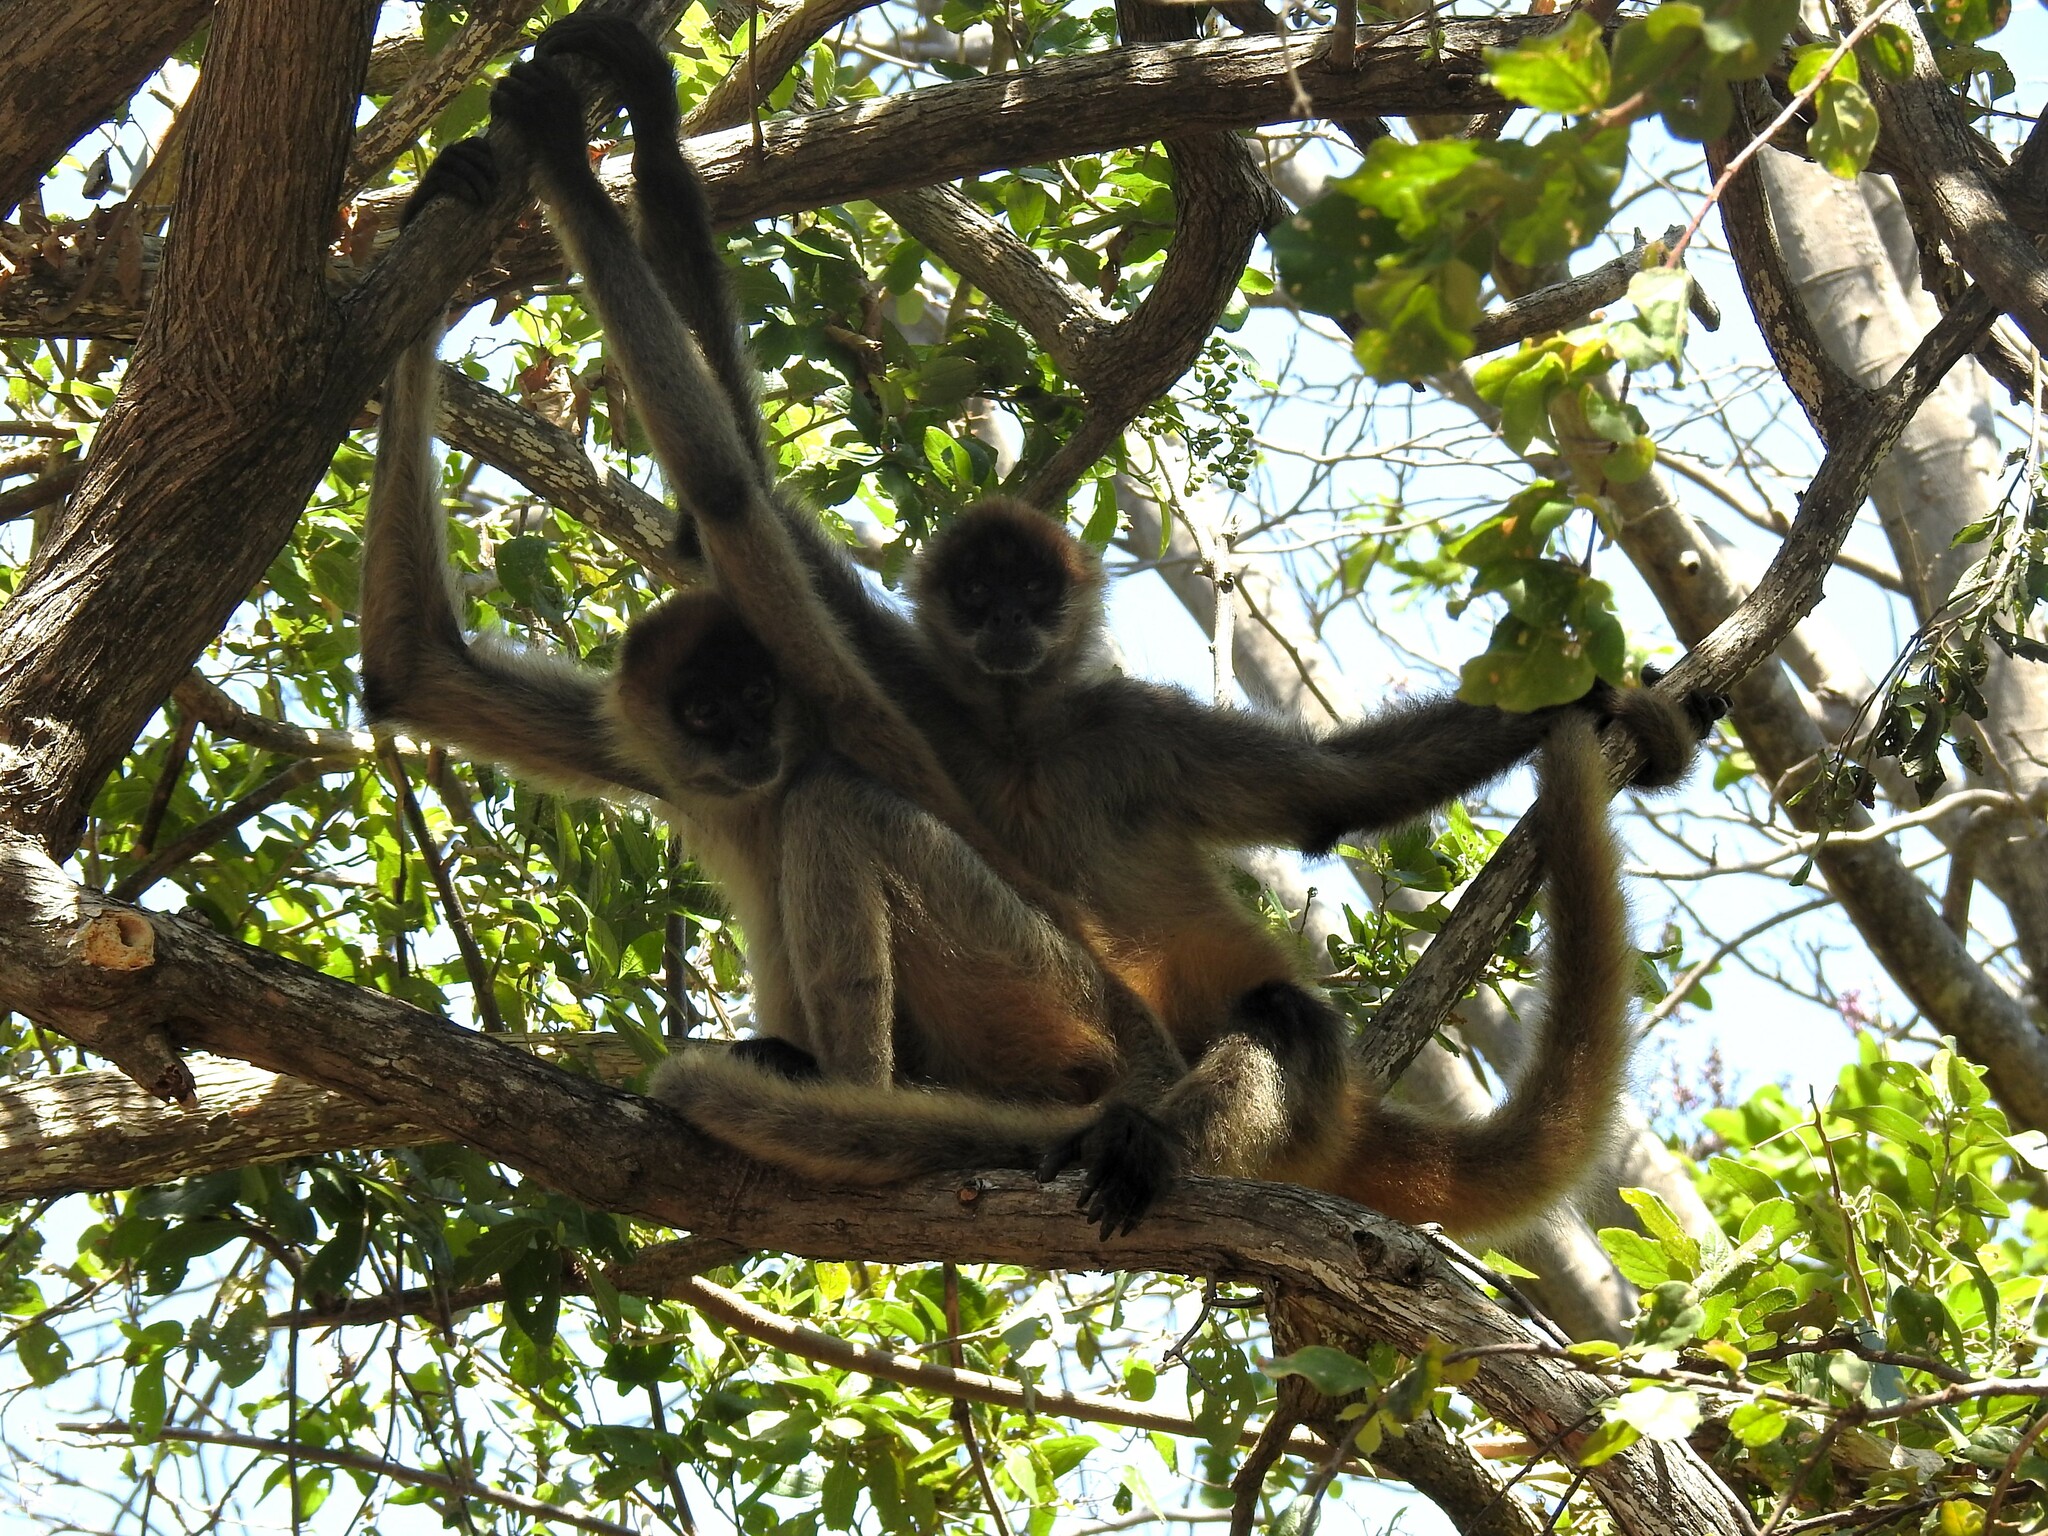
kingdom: Animalia
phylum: Chordata
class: Mammalia
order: Primates
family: Atelidae
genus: Ateles
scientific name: Ateles geoffroyi
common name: Black-handed spider monkey
